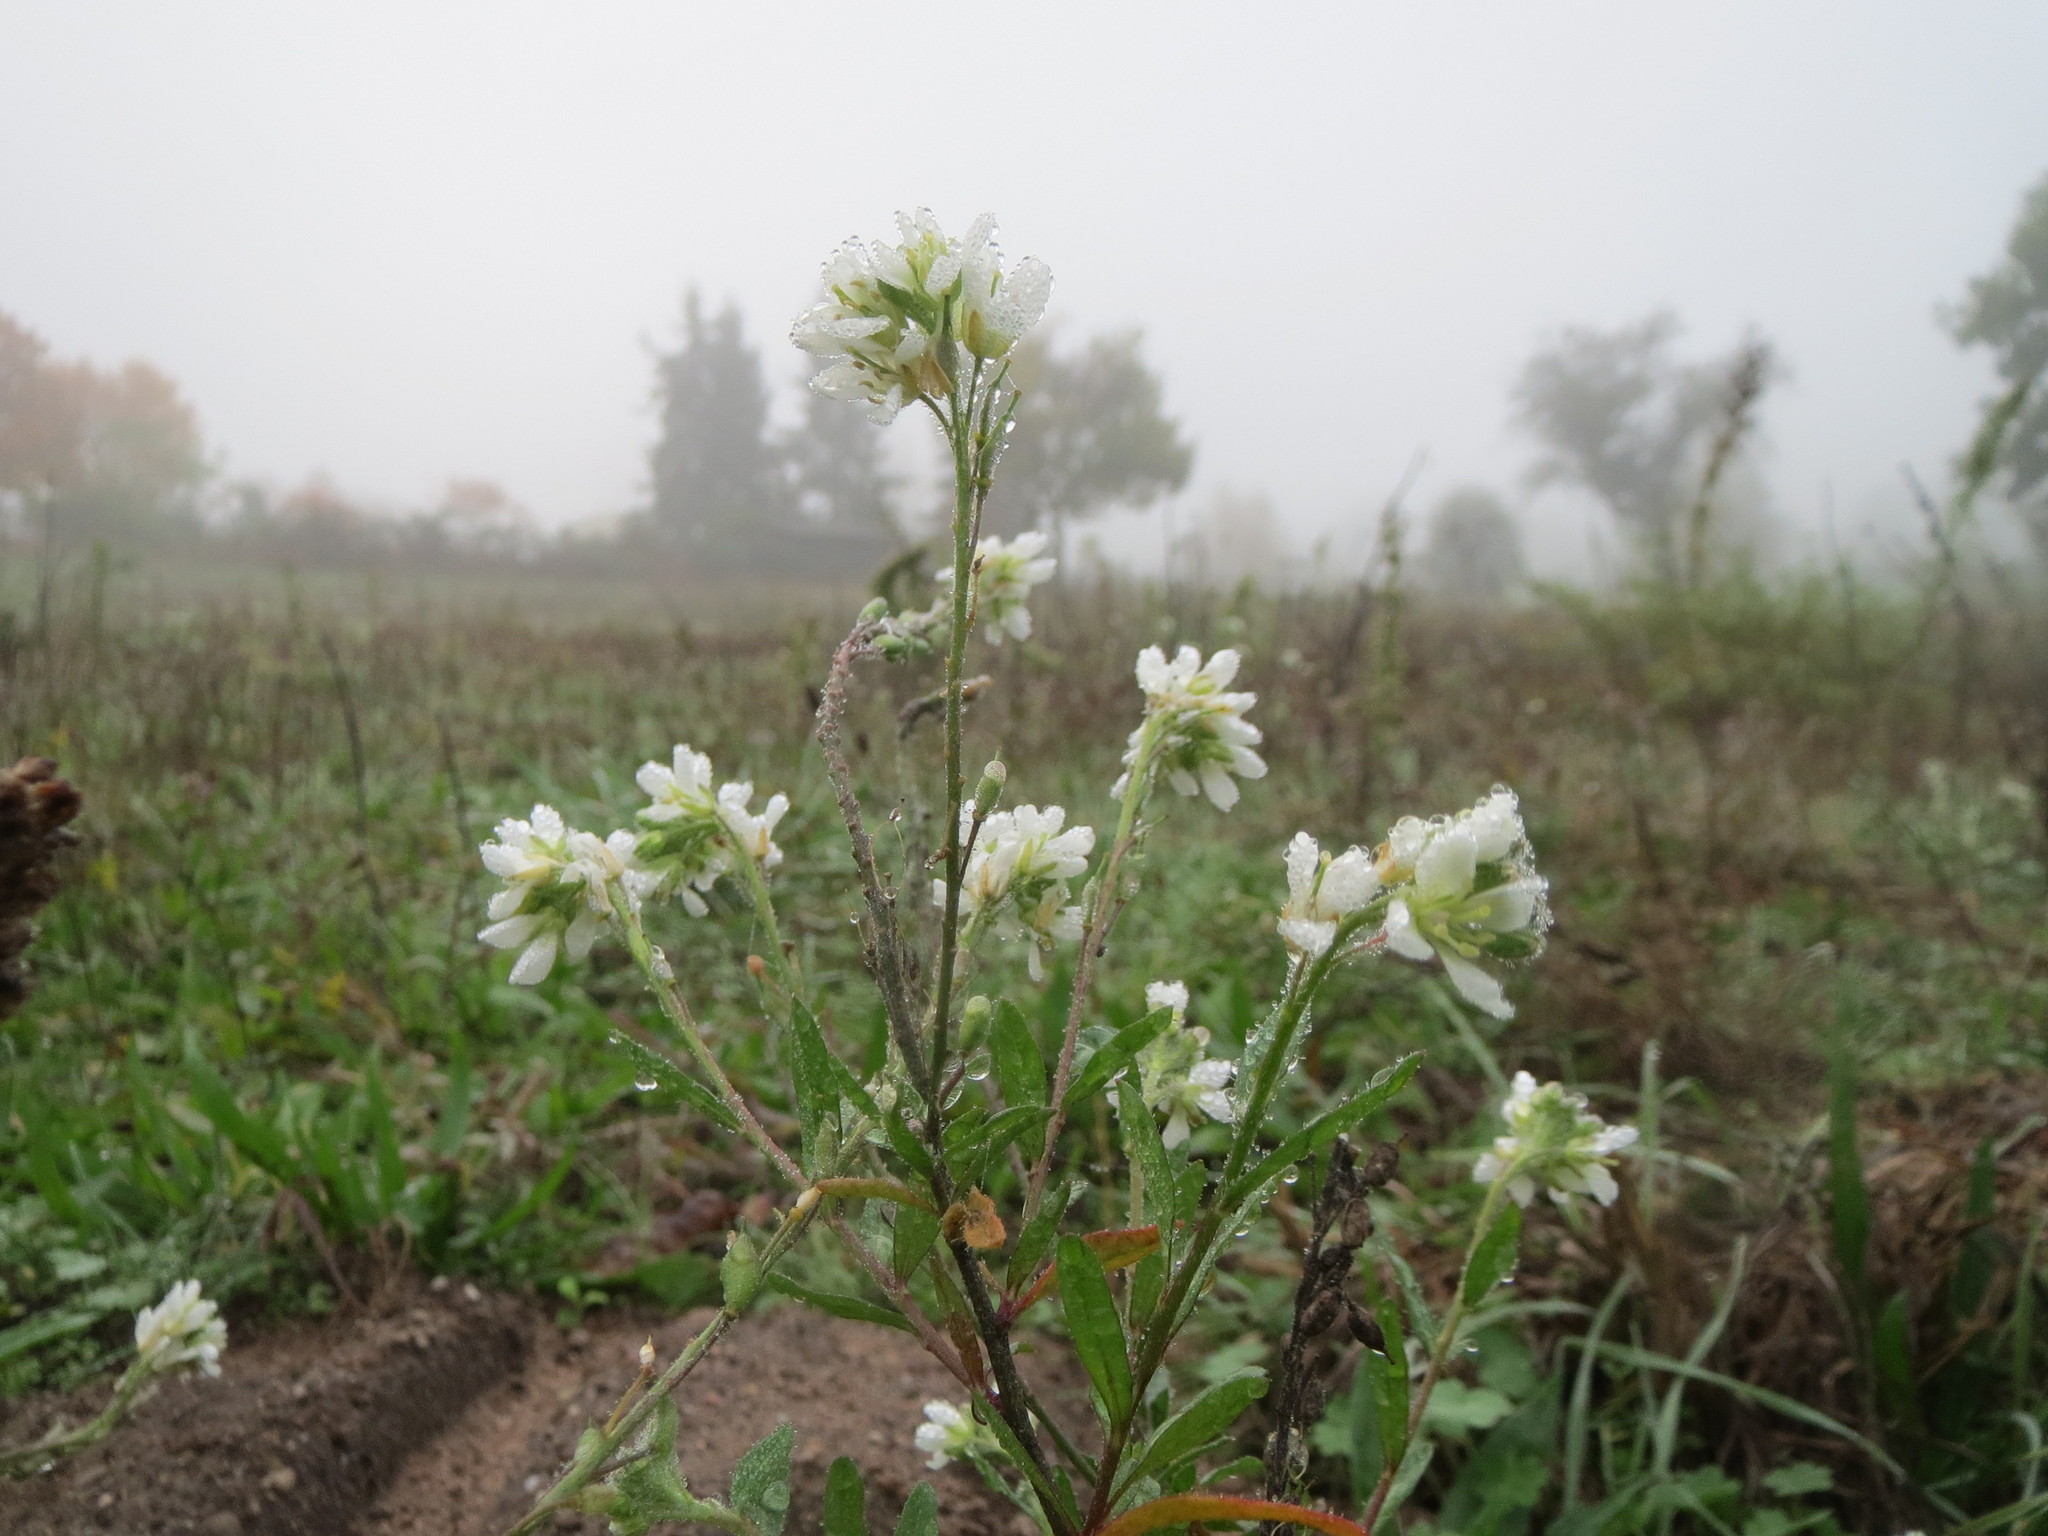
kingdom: Plantae
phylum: Tracheophyta
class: Magnoliopsida
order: Brassicales
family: Brassicaceae
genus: Berteroa
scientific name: Berteroa incana
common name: Hoary alison
